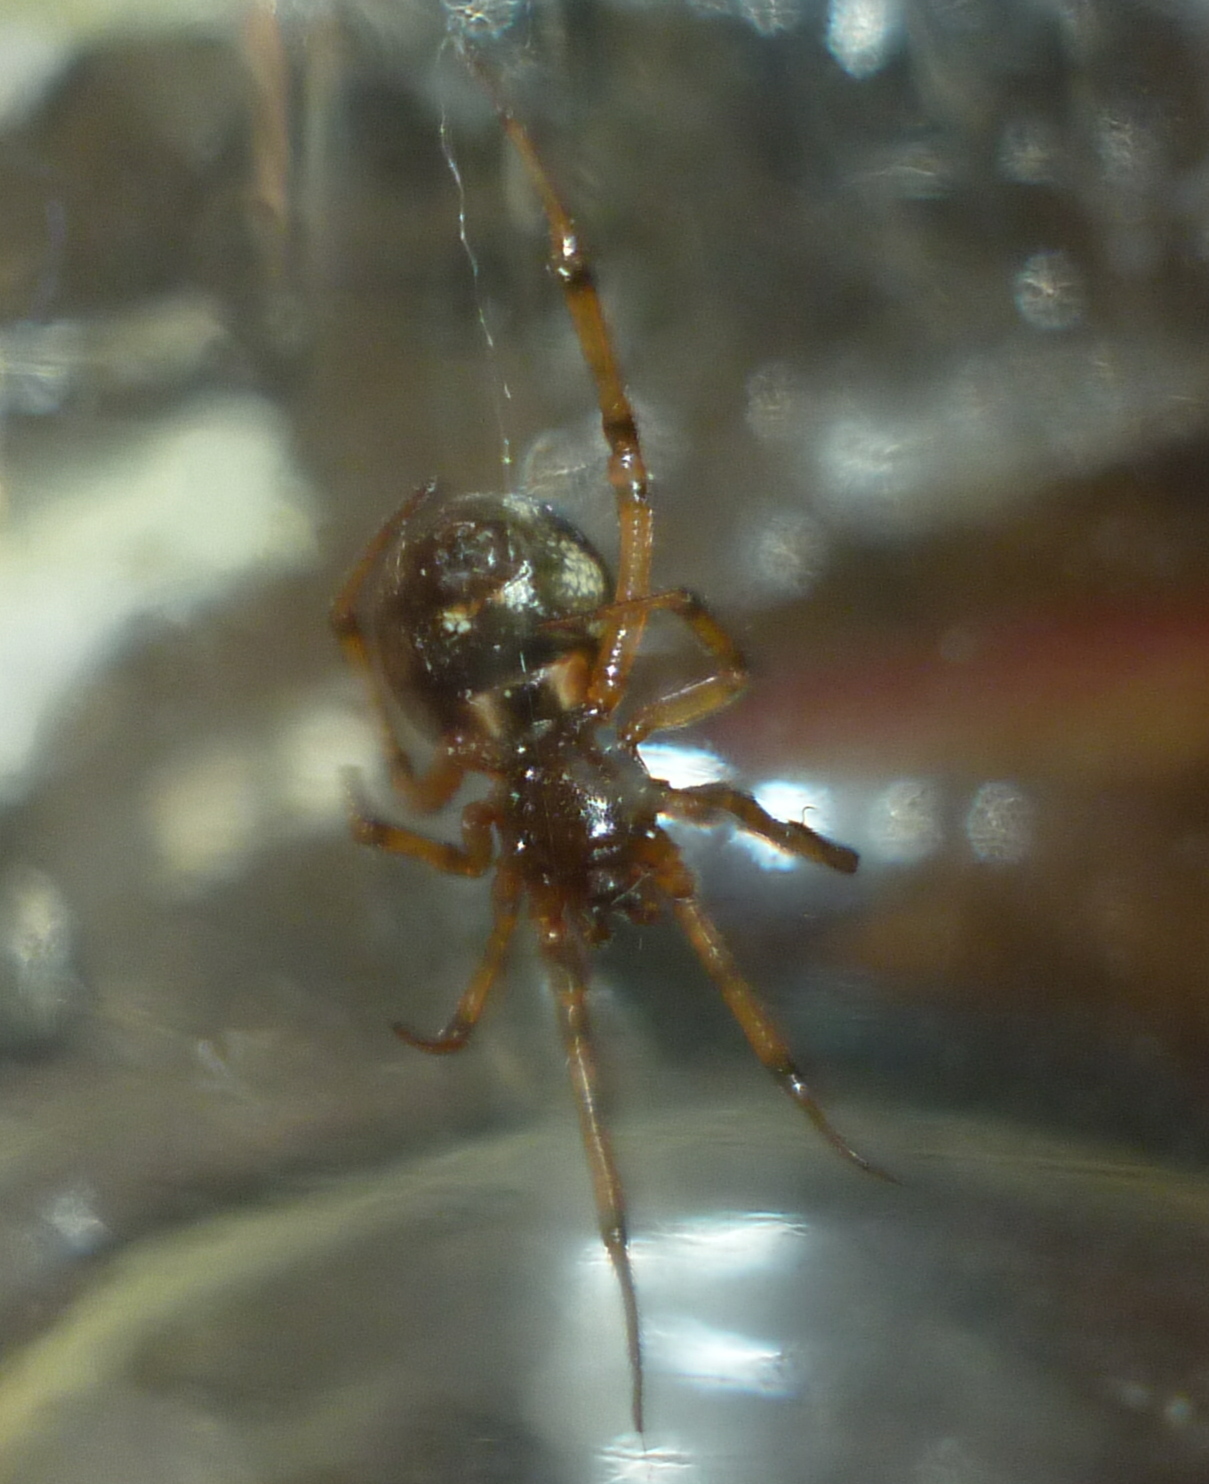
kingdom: Animalia
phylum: Arthropoda
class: Arachnida
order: Araneae
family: Theridiidae
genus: Steatoda
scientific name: Steatoda triangulosa
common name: Triangulate bud spider
